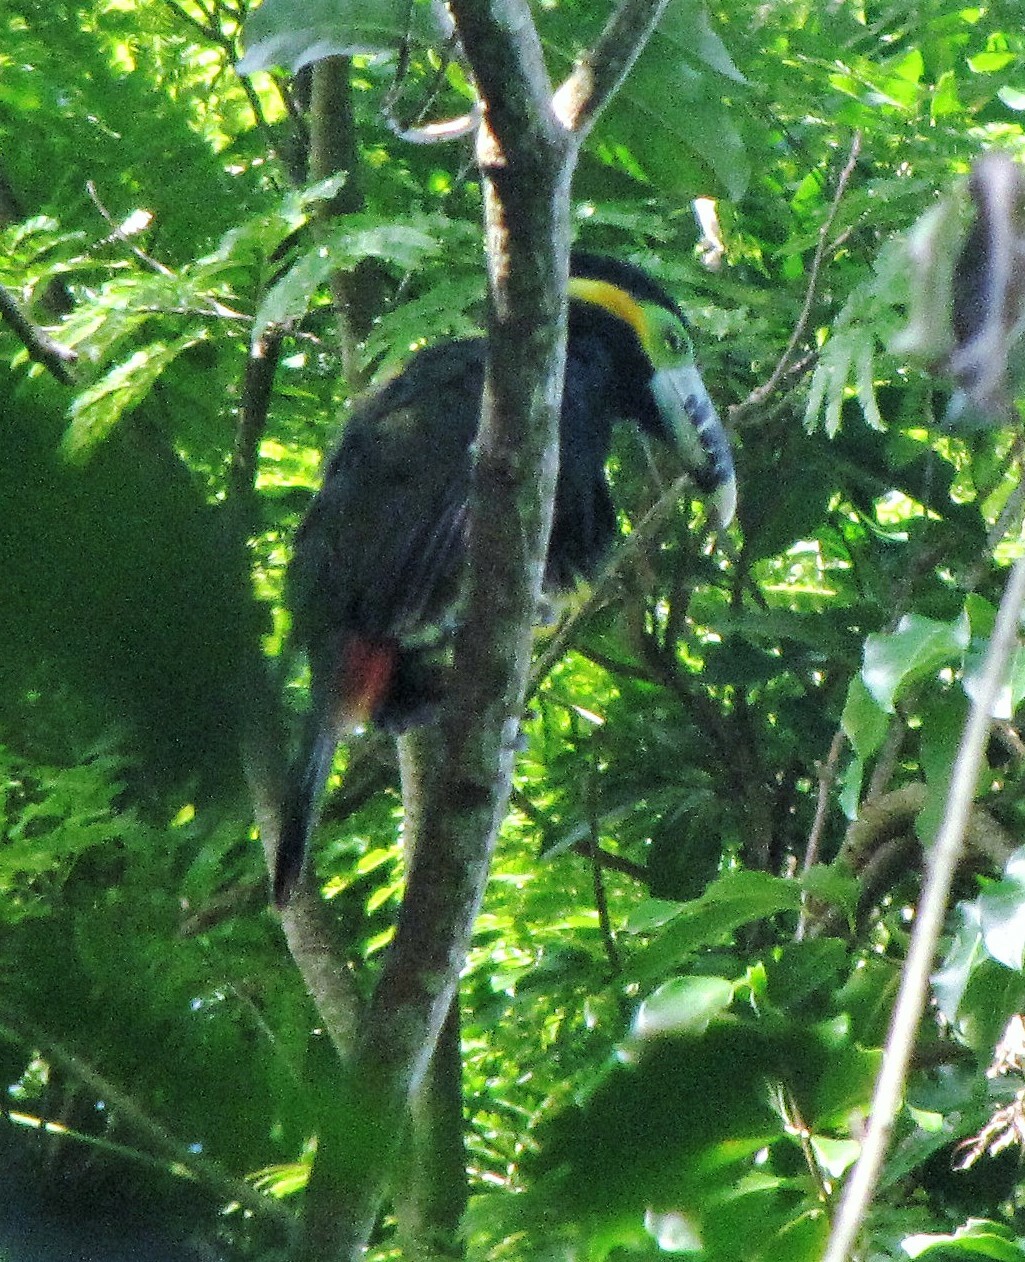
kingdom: Animalia
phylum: Chordata
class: Aves
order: Piciformes
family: Ramphastidae
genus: Selenidera
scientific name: Selenidera maculirostris
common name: Spot-billed toucanet
